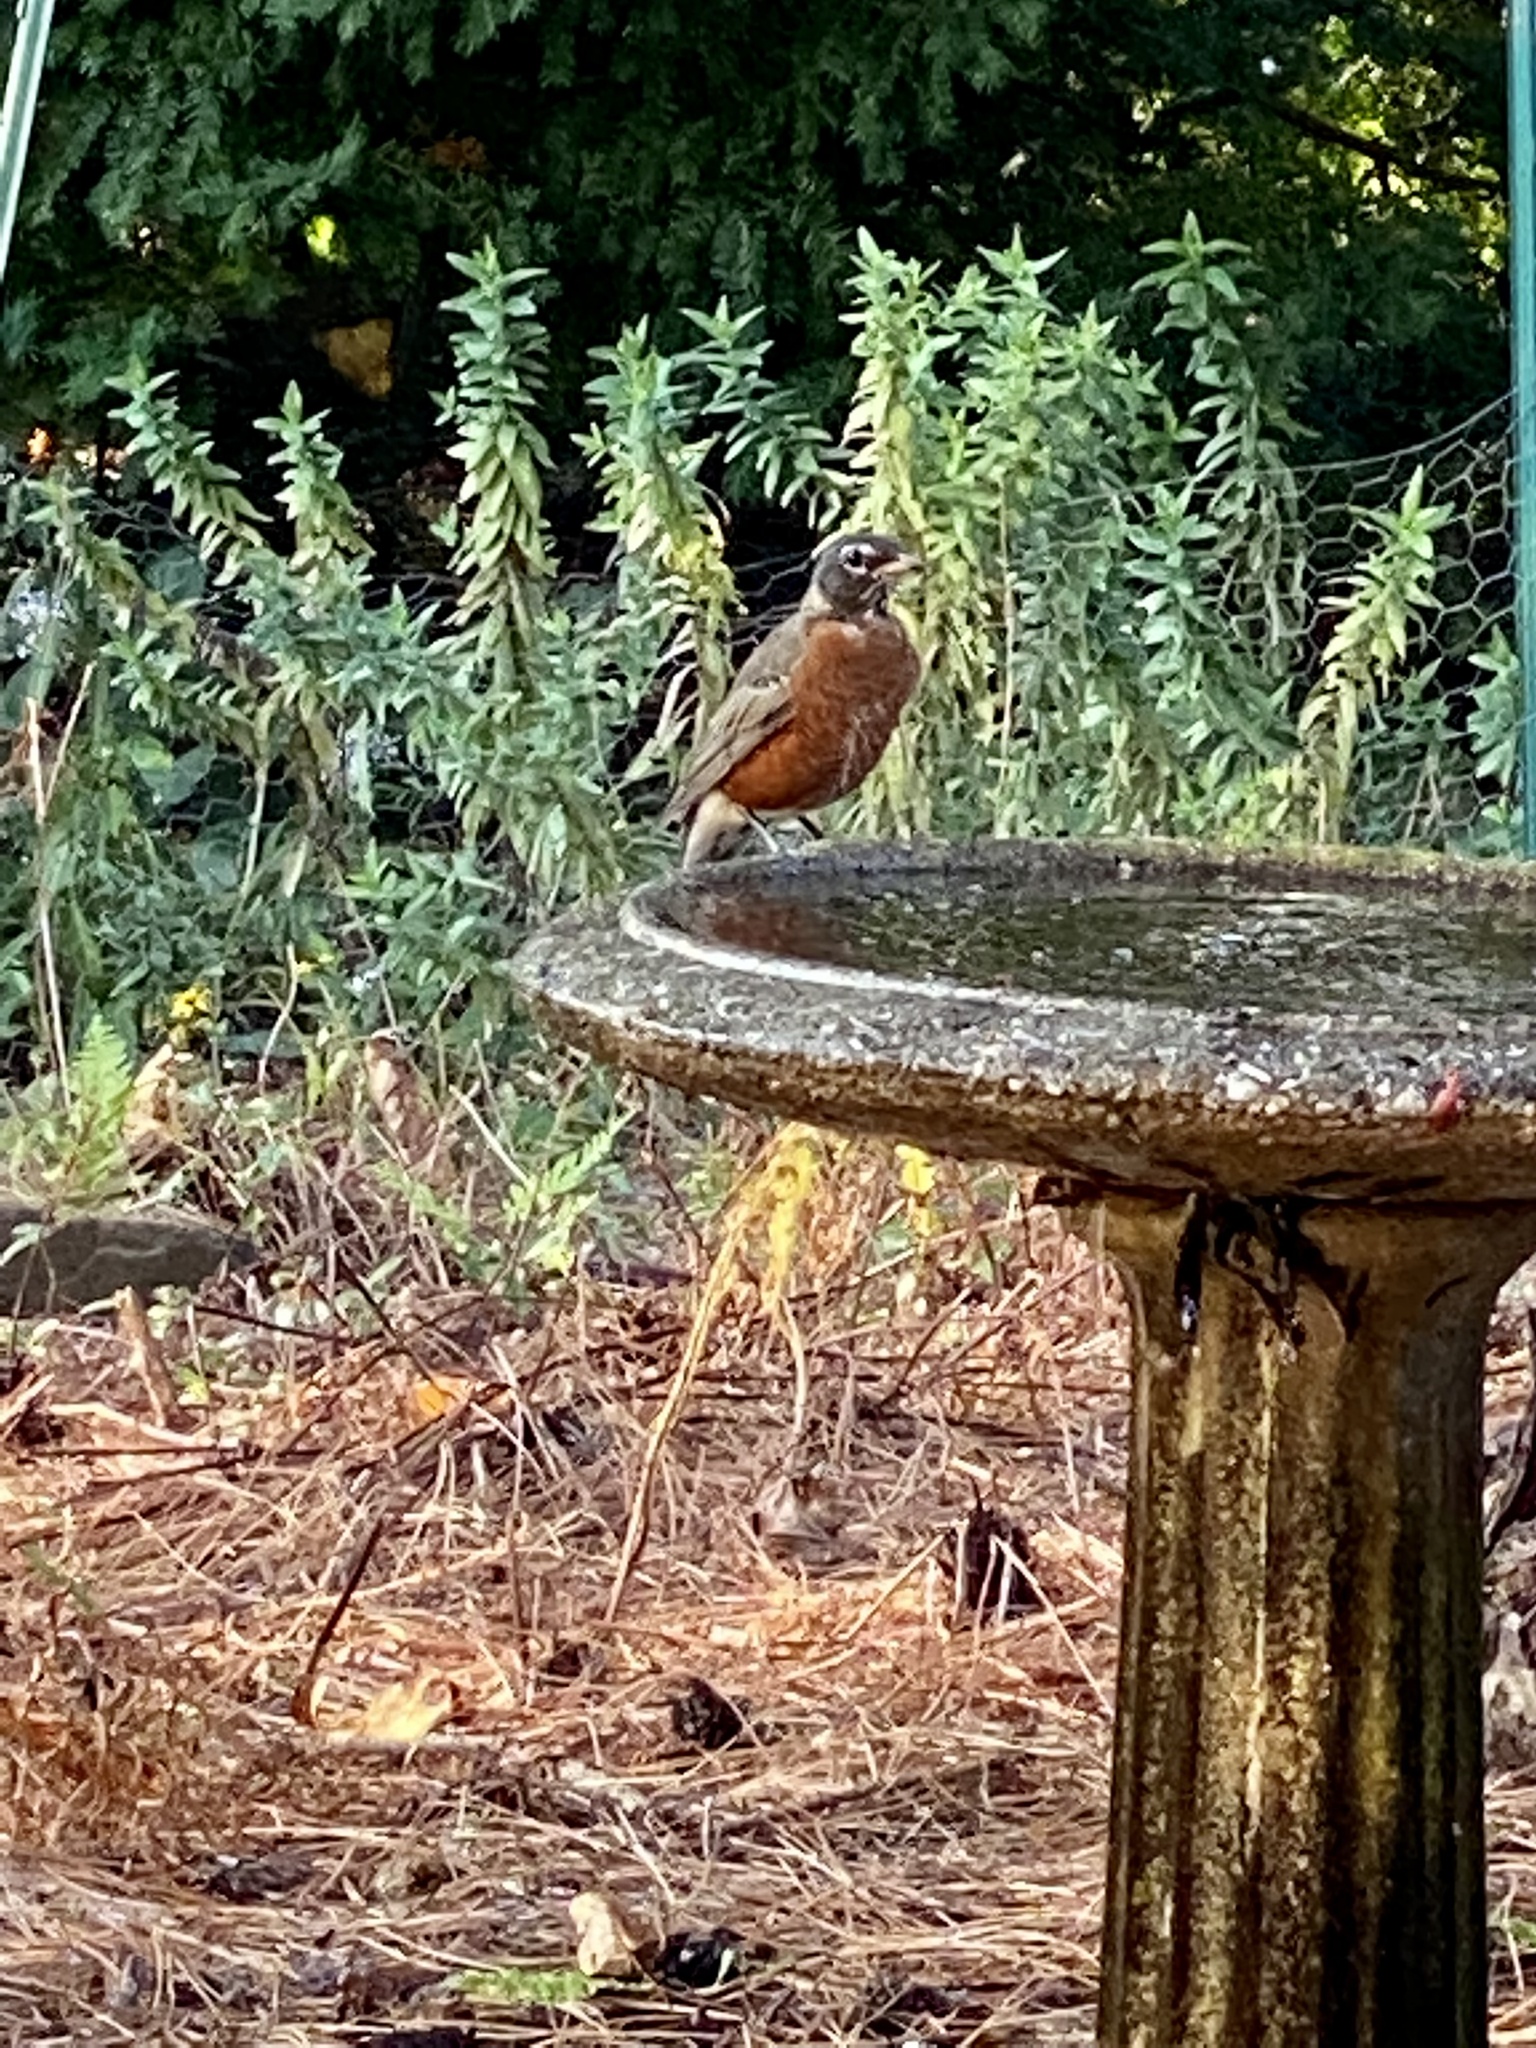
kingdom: Animalia
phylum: Chordata
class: Aves
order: Passeriformes
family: Turdidae
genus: Turdus
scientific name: Turdus migratorius
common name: American robin
